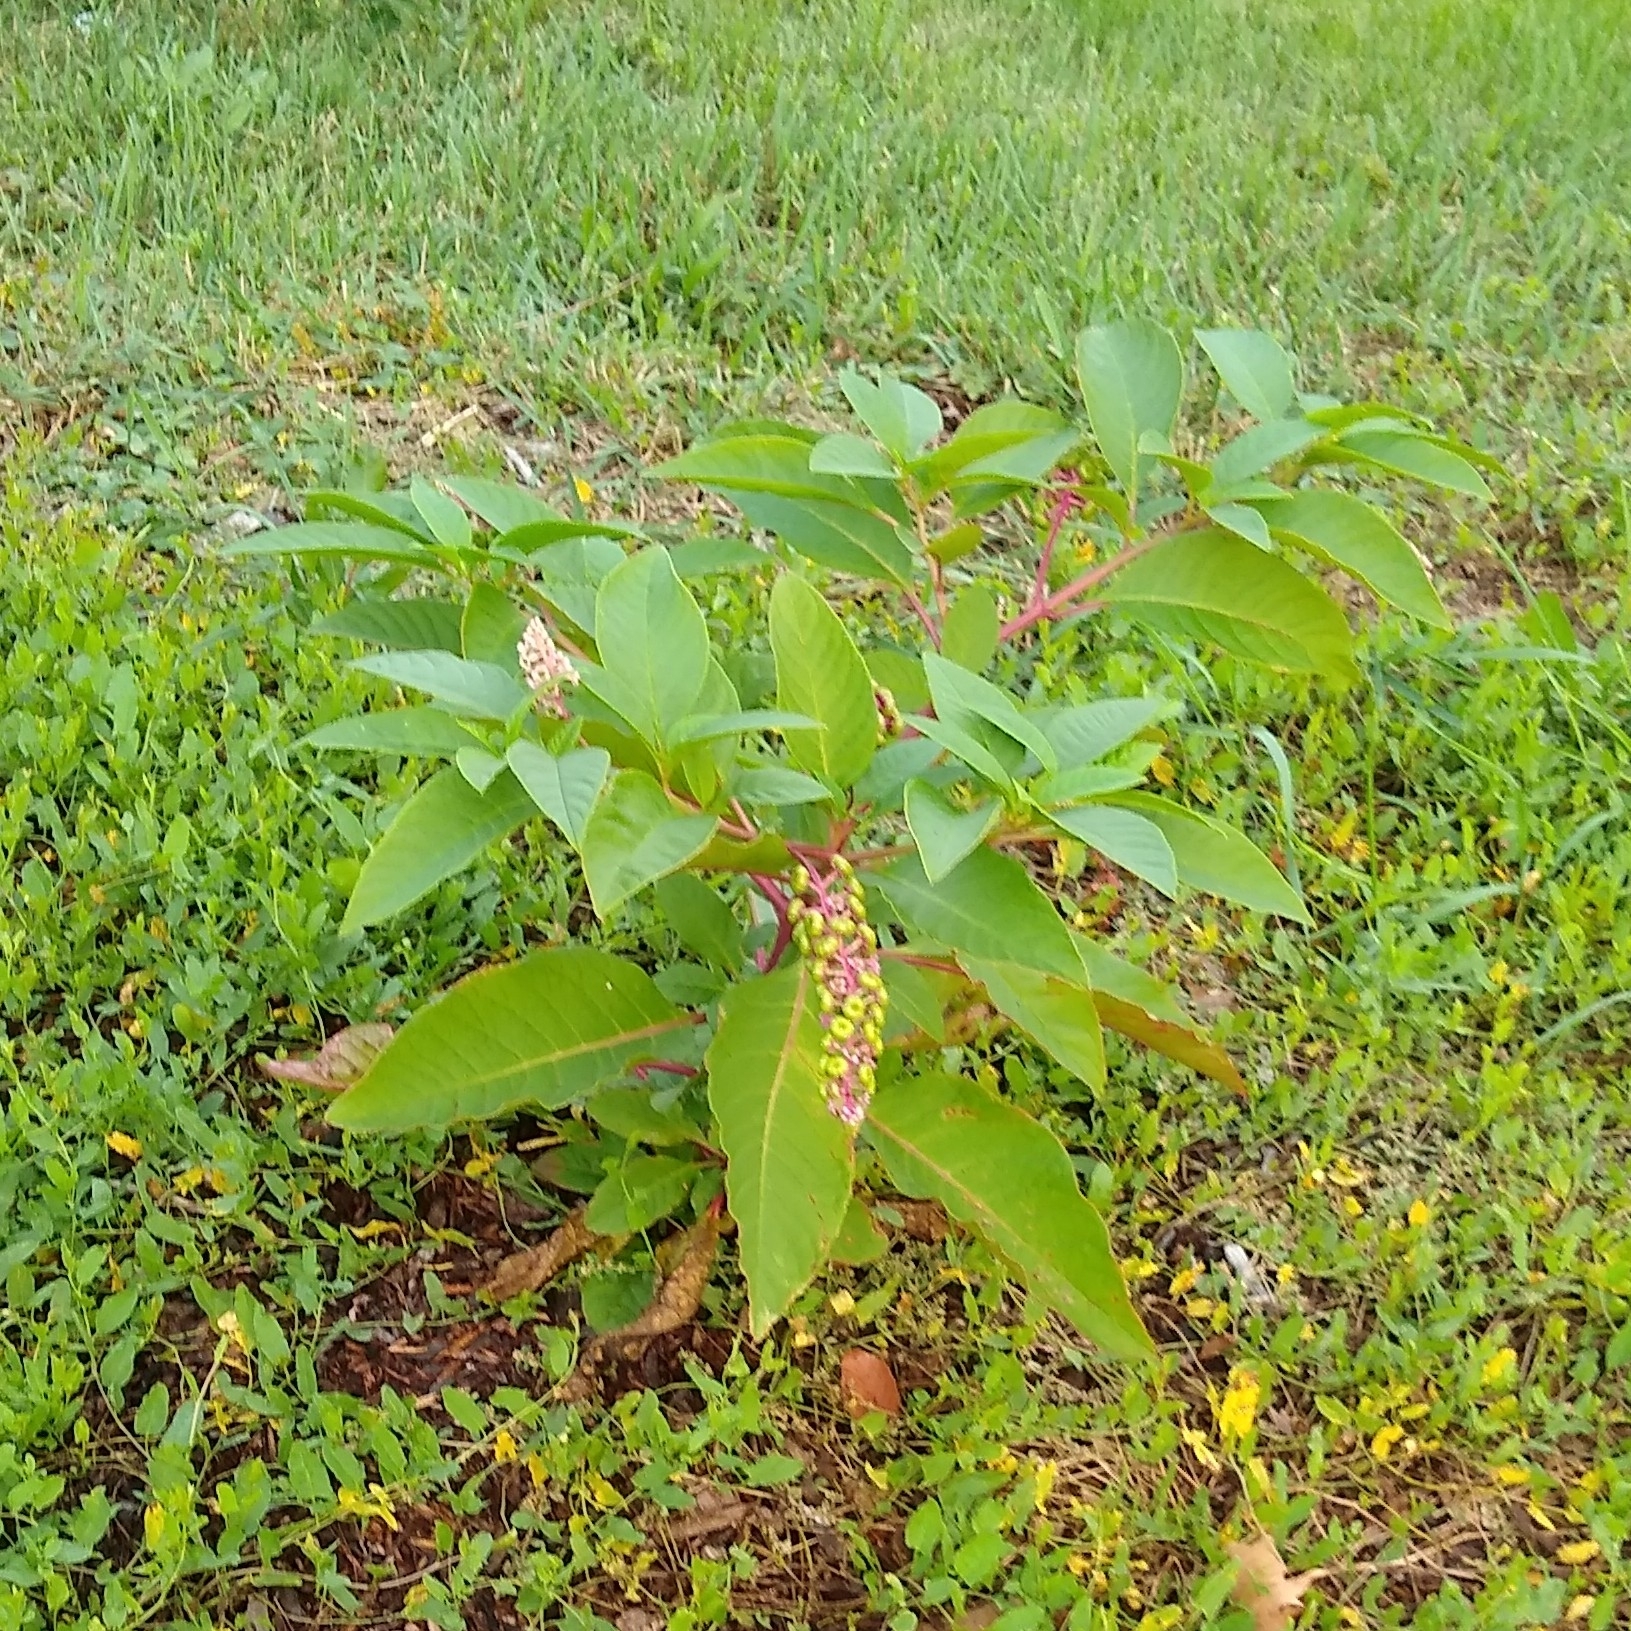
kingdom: Plantae
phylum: Tracheophyta
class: Magnoliopsida
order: Caryophyllales
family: Phytolaccaceae
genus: Phytolacca
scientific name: Phytolacca americana
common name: American pokeweed
